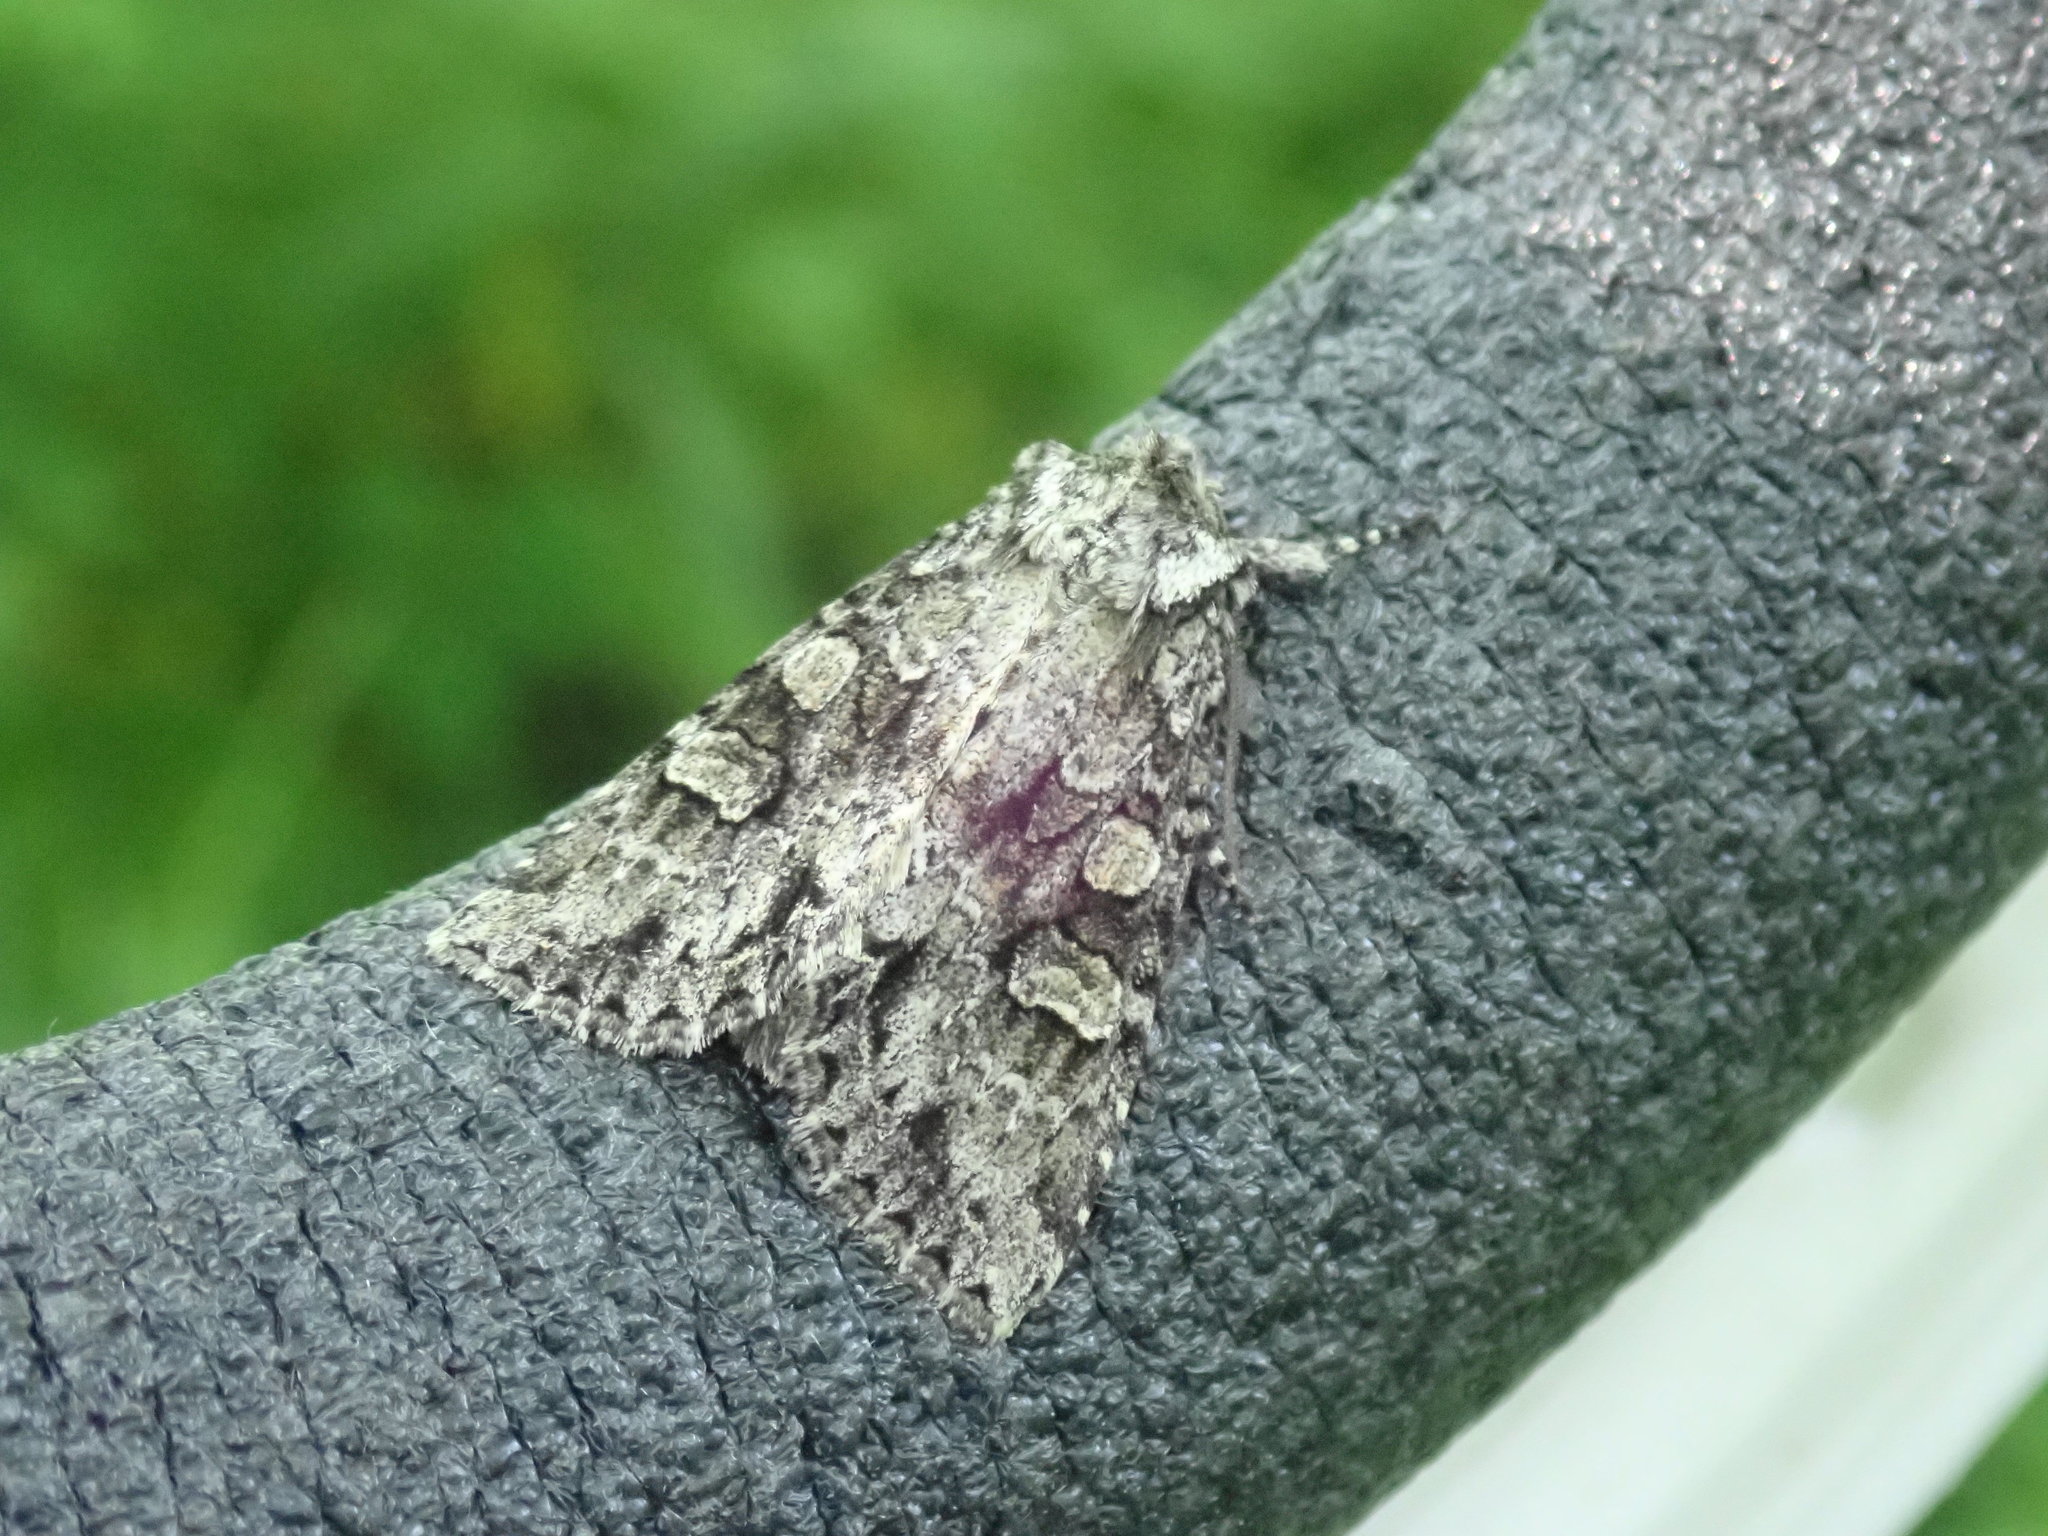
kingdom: Animalia
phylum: Arthropoda
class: Insecta
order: Lepidoptera
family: Noctuidae
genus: Achatia
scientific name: Achatia latex
